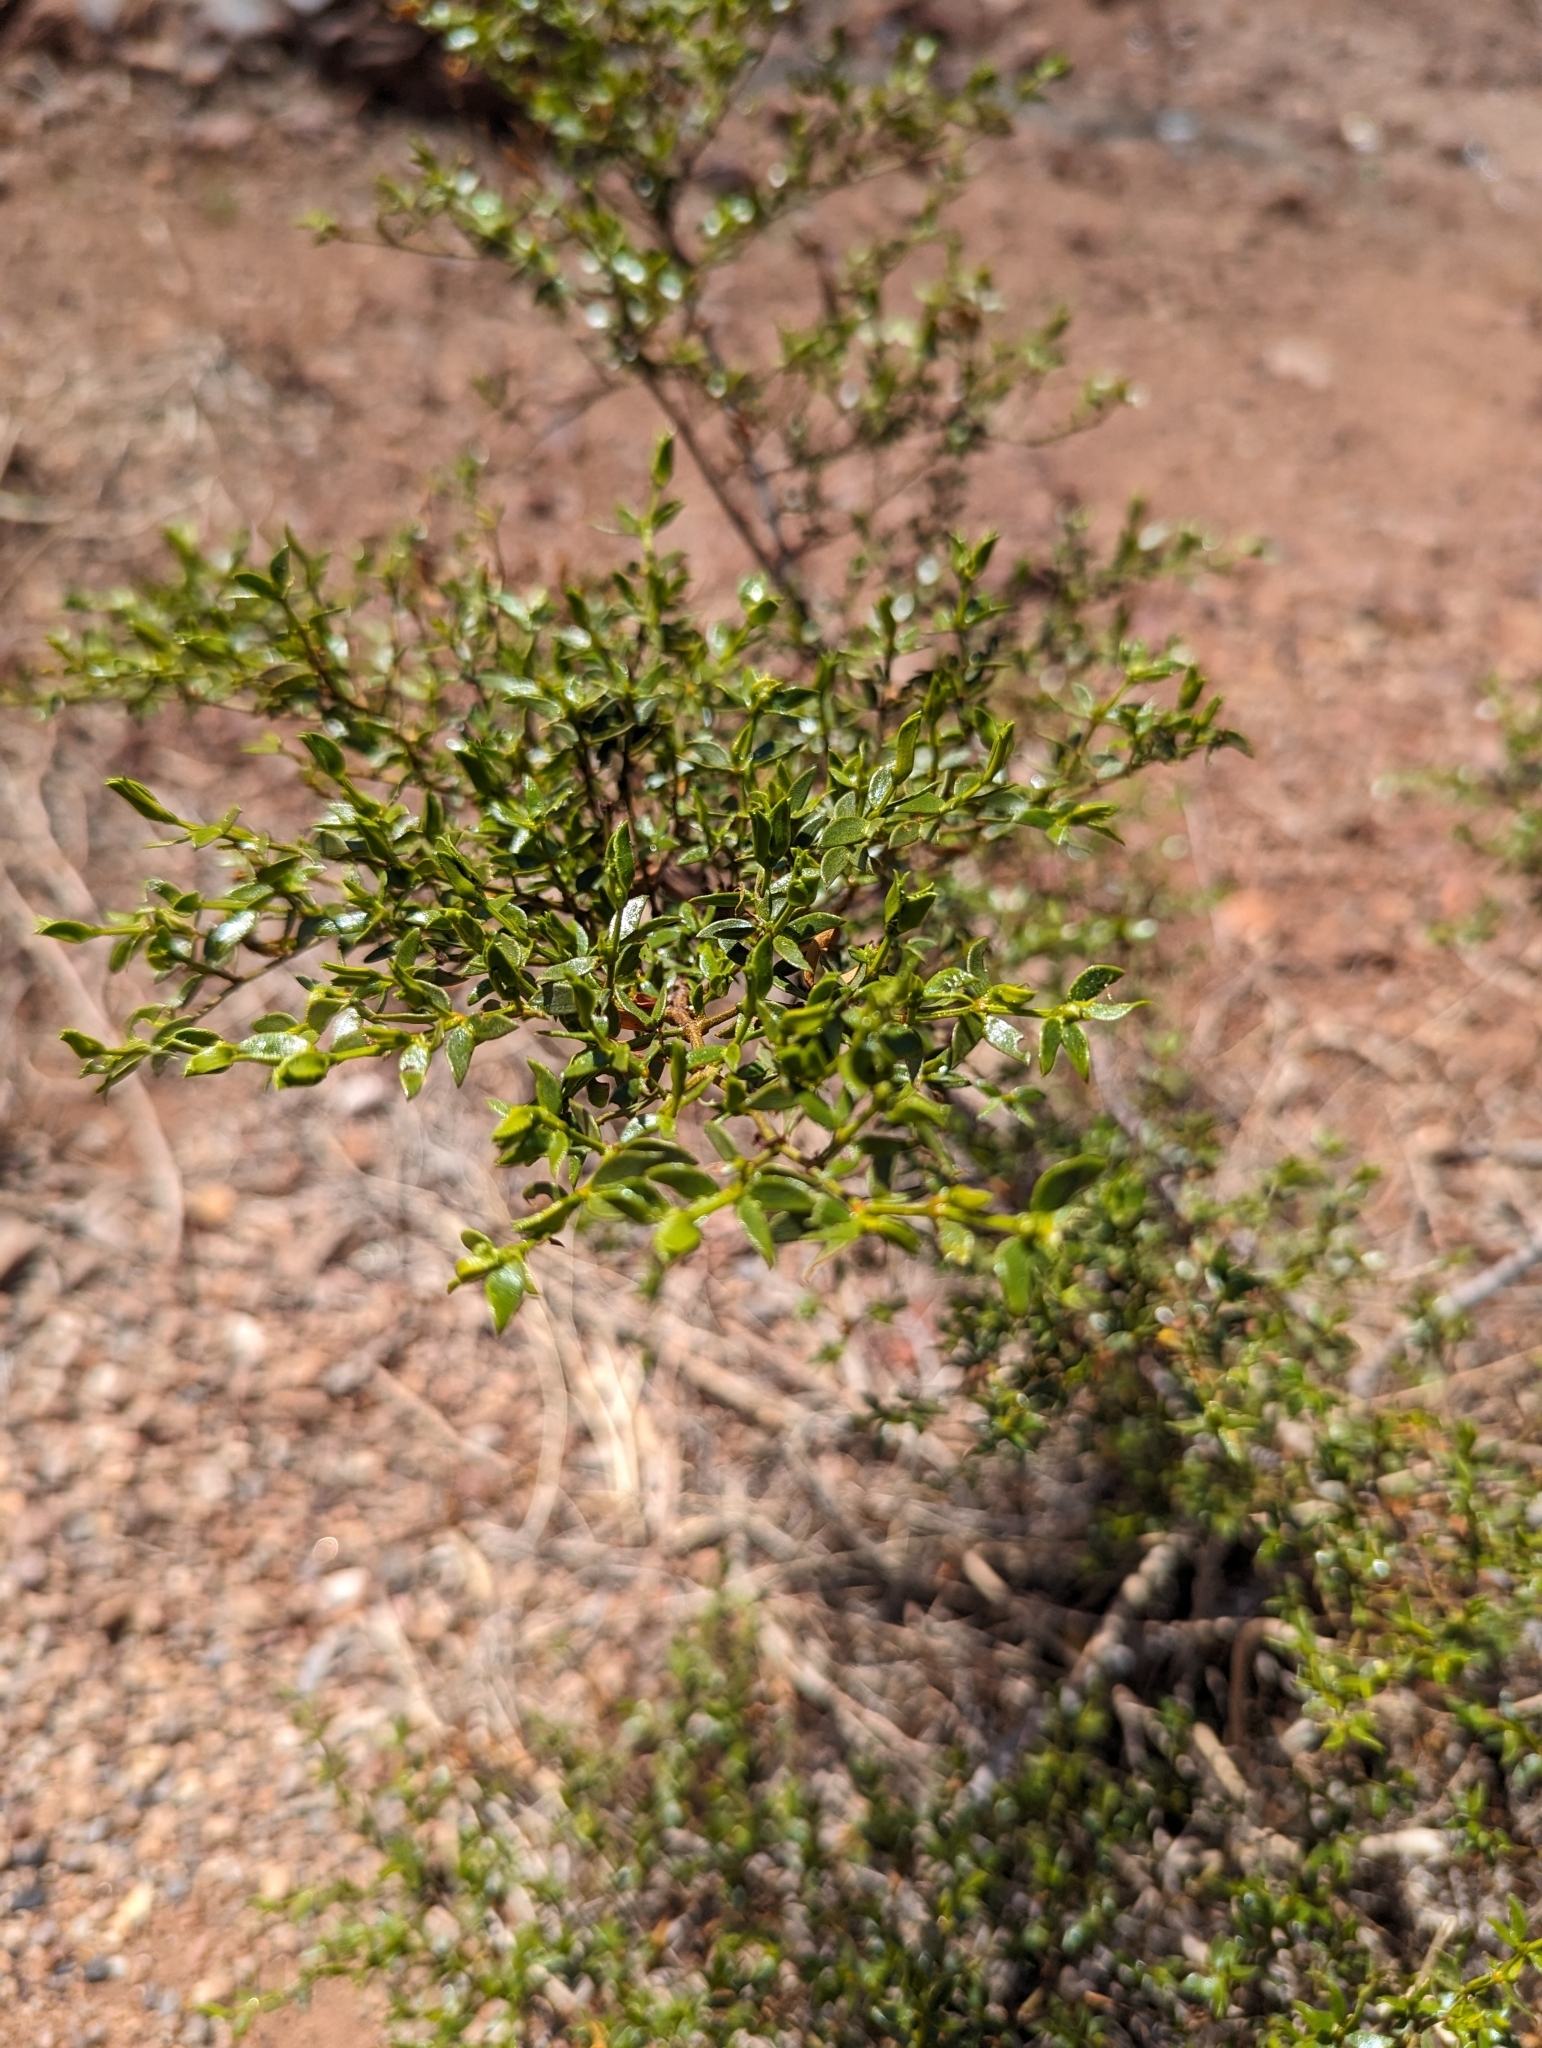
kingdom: Plantae
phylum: Tracheophyta
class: Magnoliopsida
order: Zygophyllales
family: Zygophyllaceae
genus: Larrea
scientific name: Larrea tridentata
